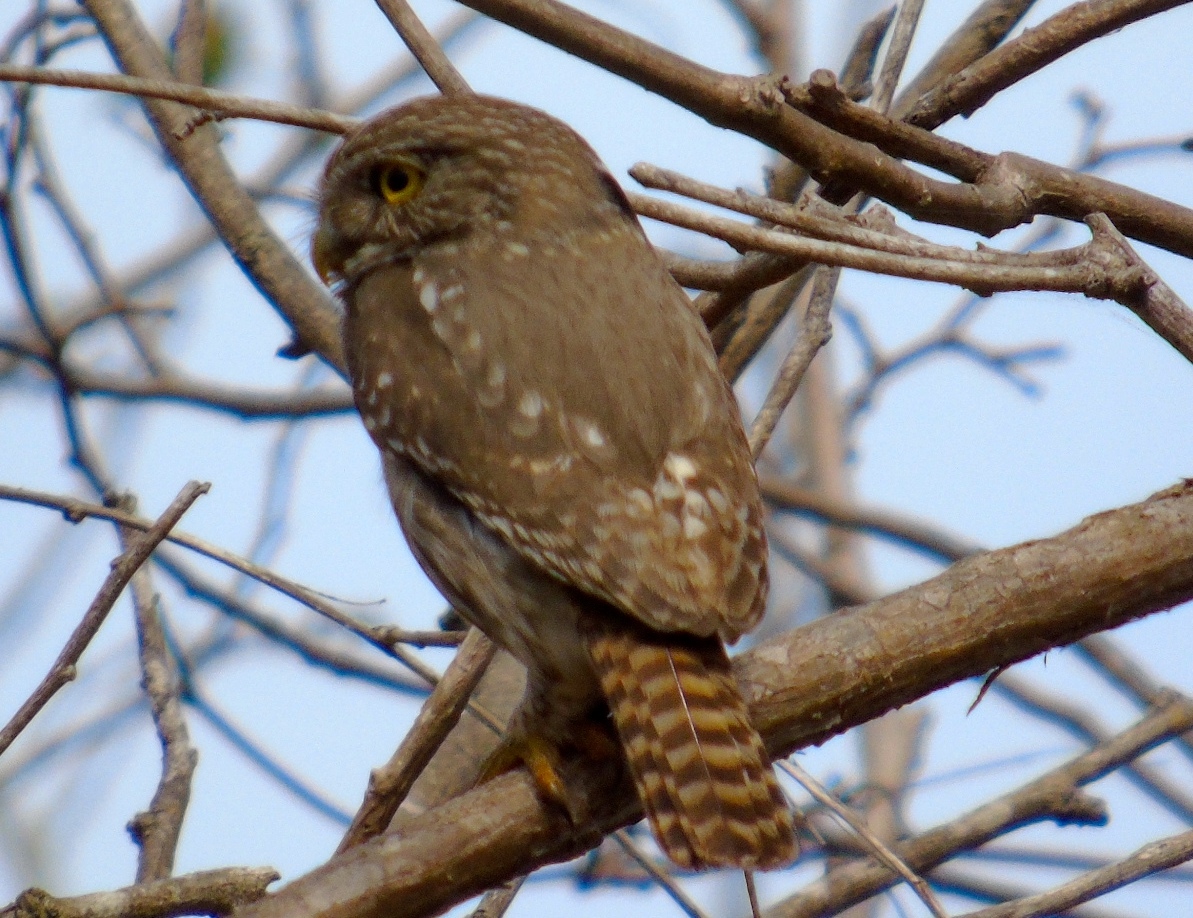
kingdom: Animalia
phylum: Chordata
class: Aves
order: Strigiformes
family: Strigidae
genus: Glaucidium
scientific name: Glaucidium brasilianum
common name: Ferruginous pygmy-owl
